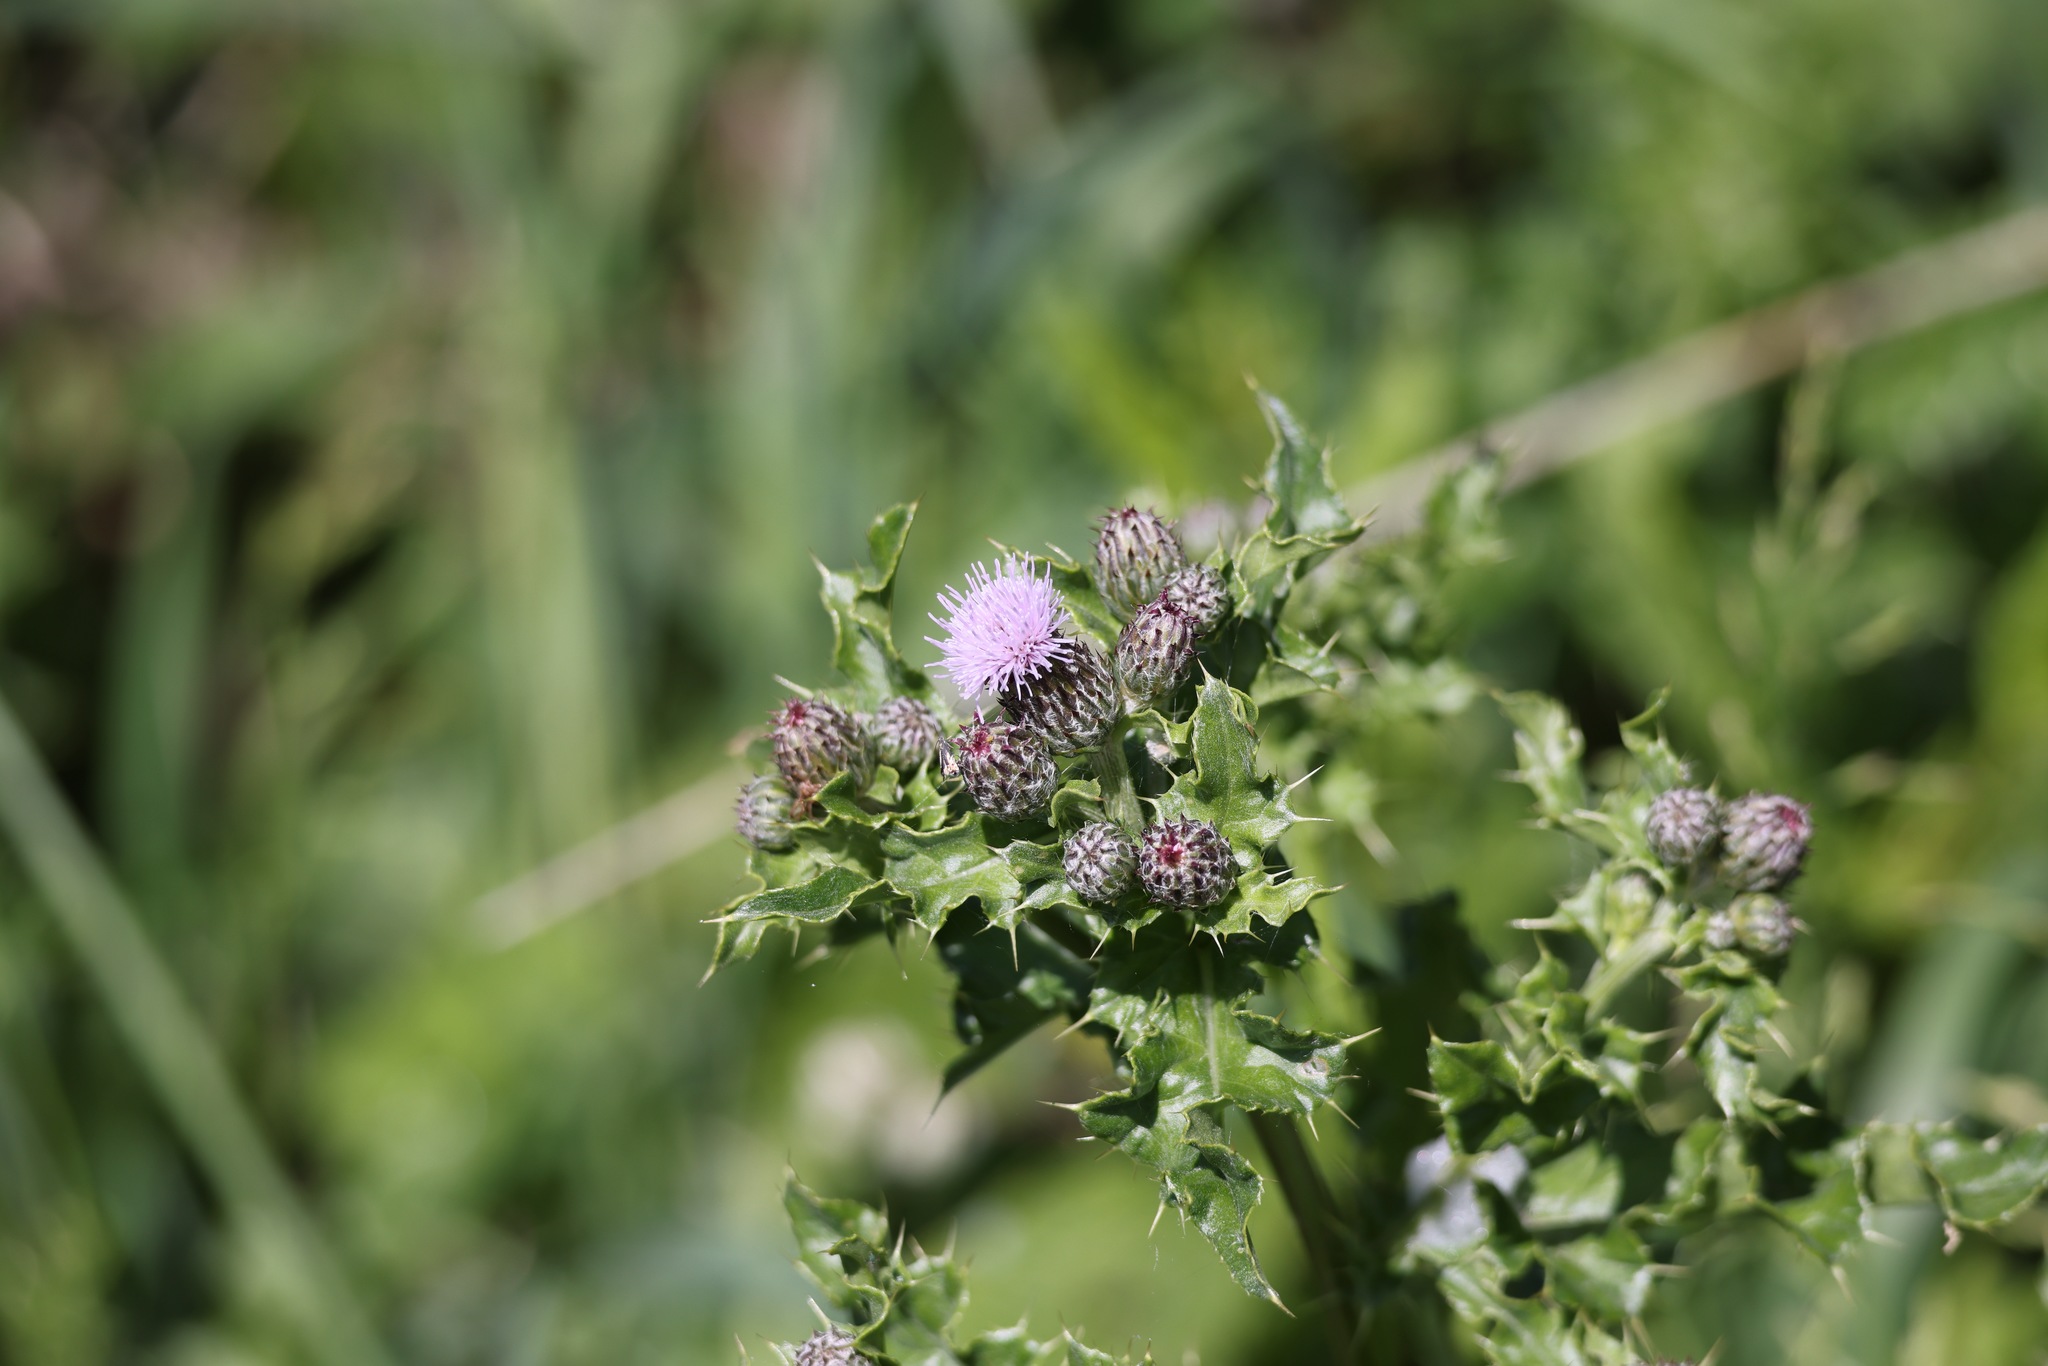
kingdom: Plantae
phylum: Tracheophyta
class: Magnoliopsida
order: Asterales
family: Asteraceae
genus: Cirsium
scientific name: Cirsium arvense
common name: Creeping thistle
